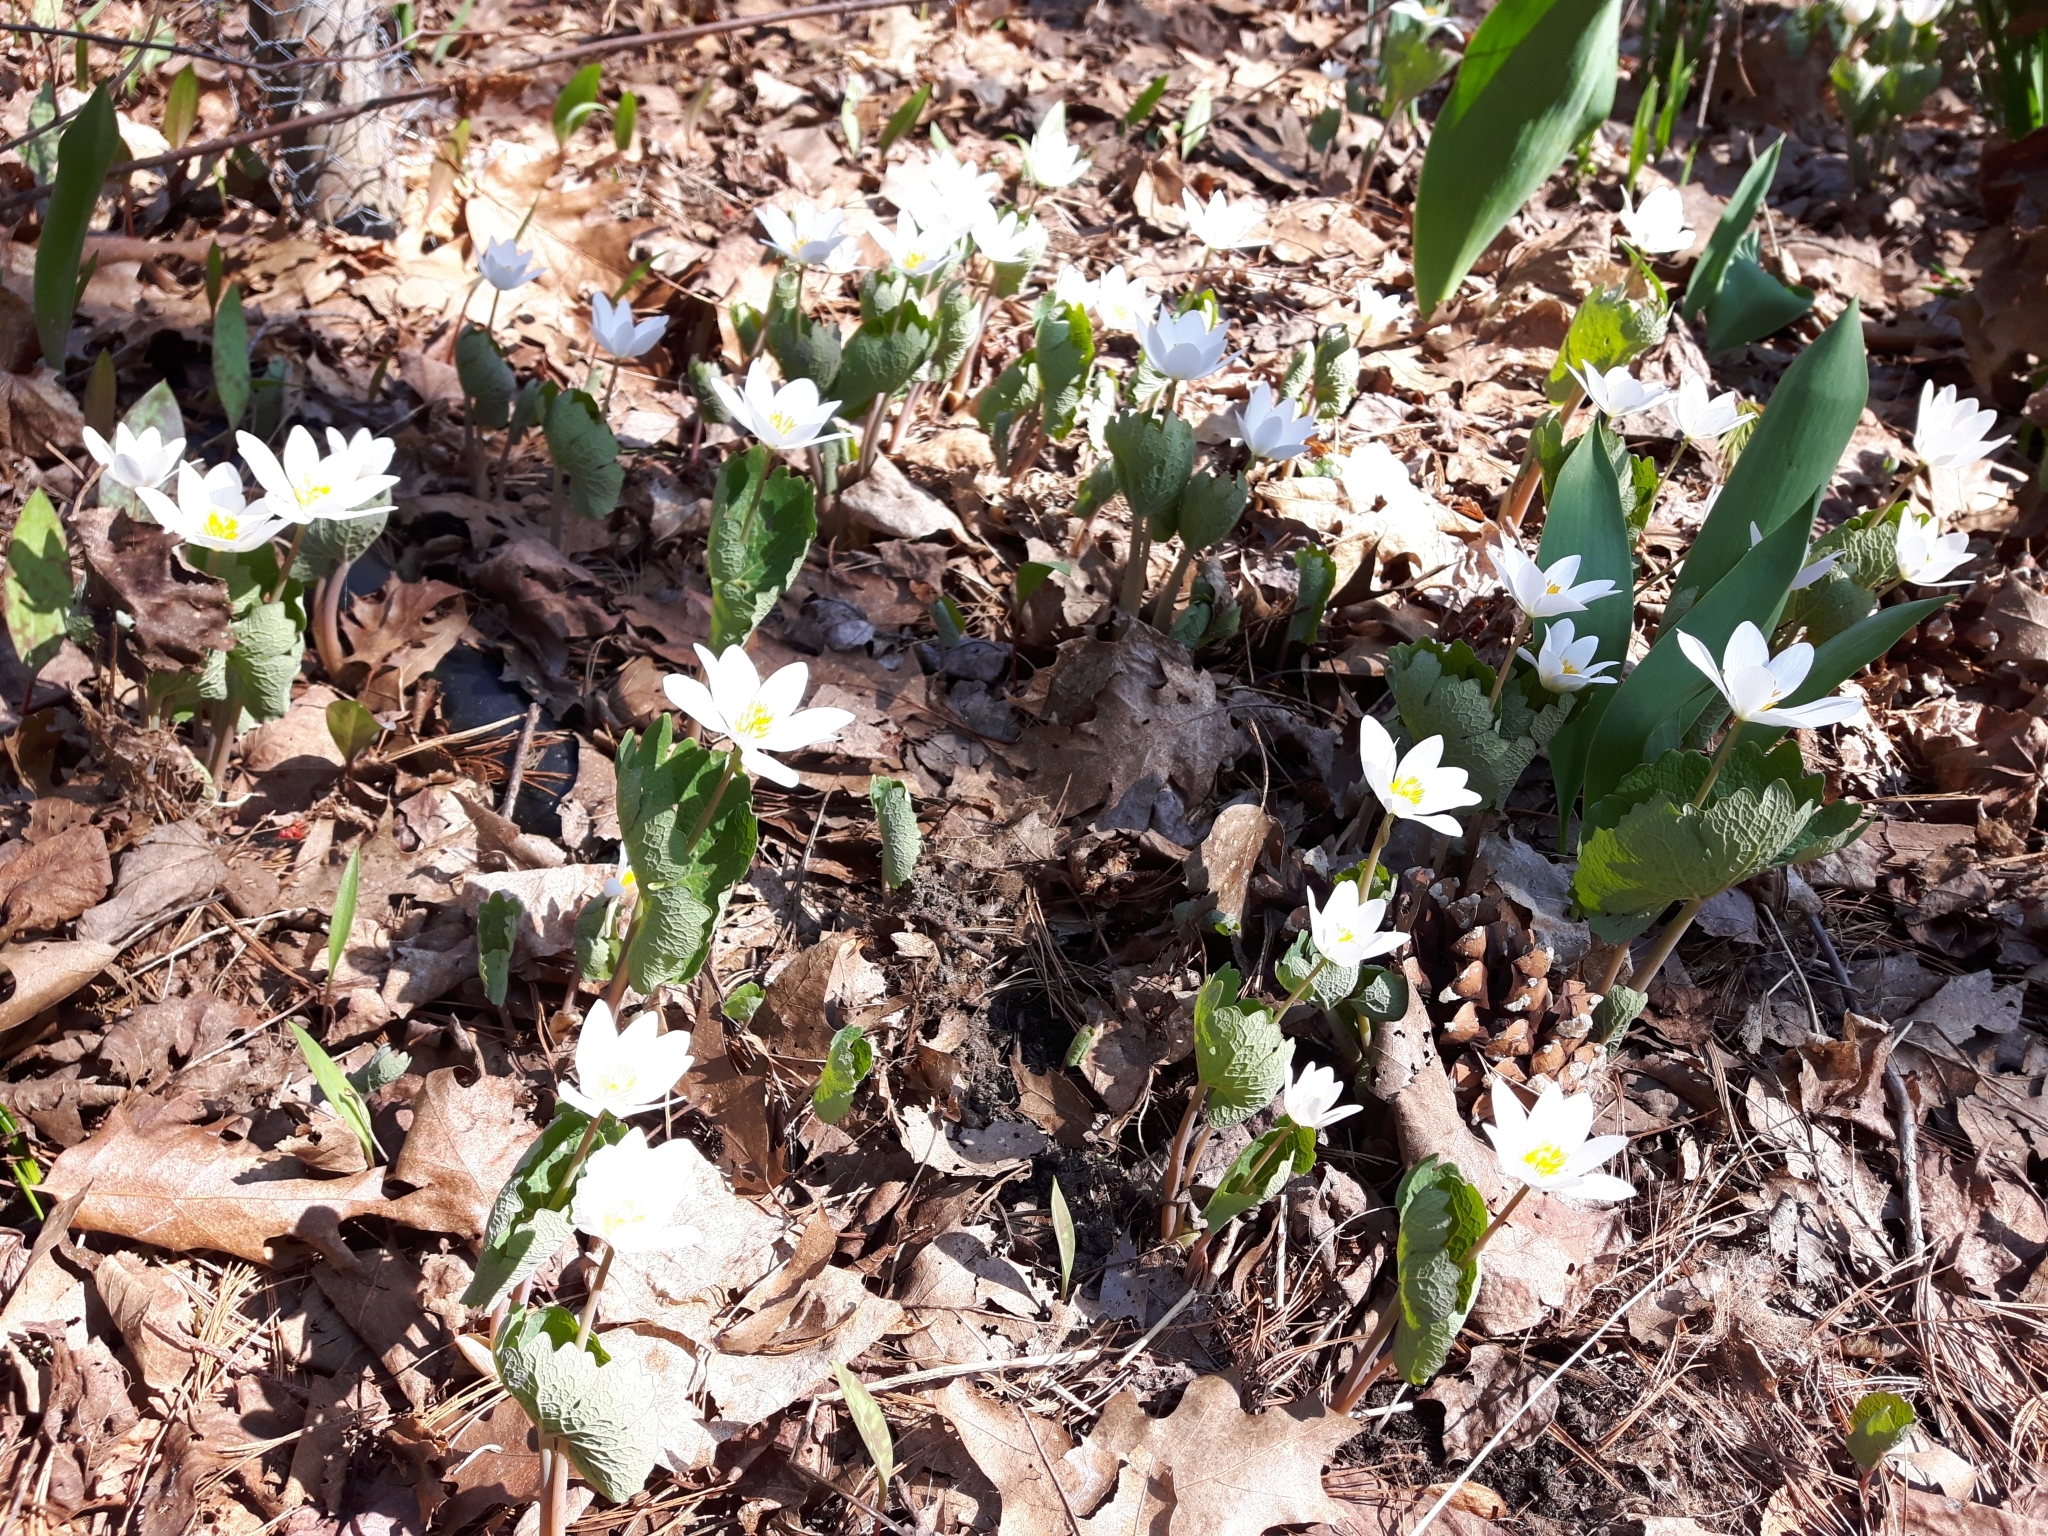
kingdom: Plantae
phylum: Tracheophyta
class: Magnoliopsida
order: Ranunculales
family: Papaveraceae
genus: Sanguinaria
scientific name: Sanguinaria canadensis
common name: Bloodroot
